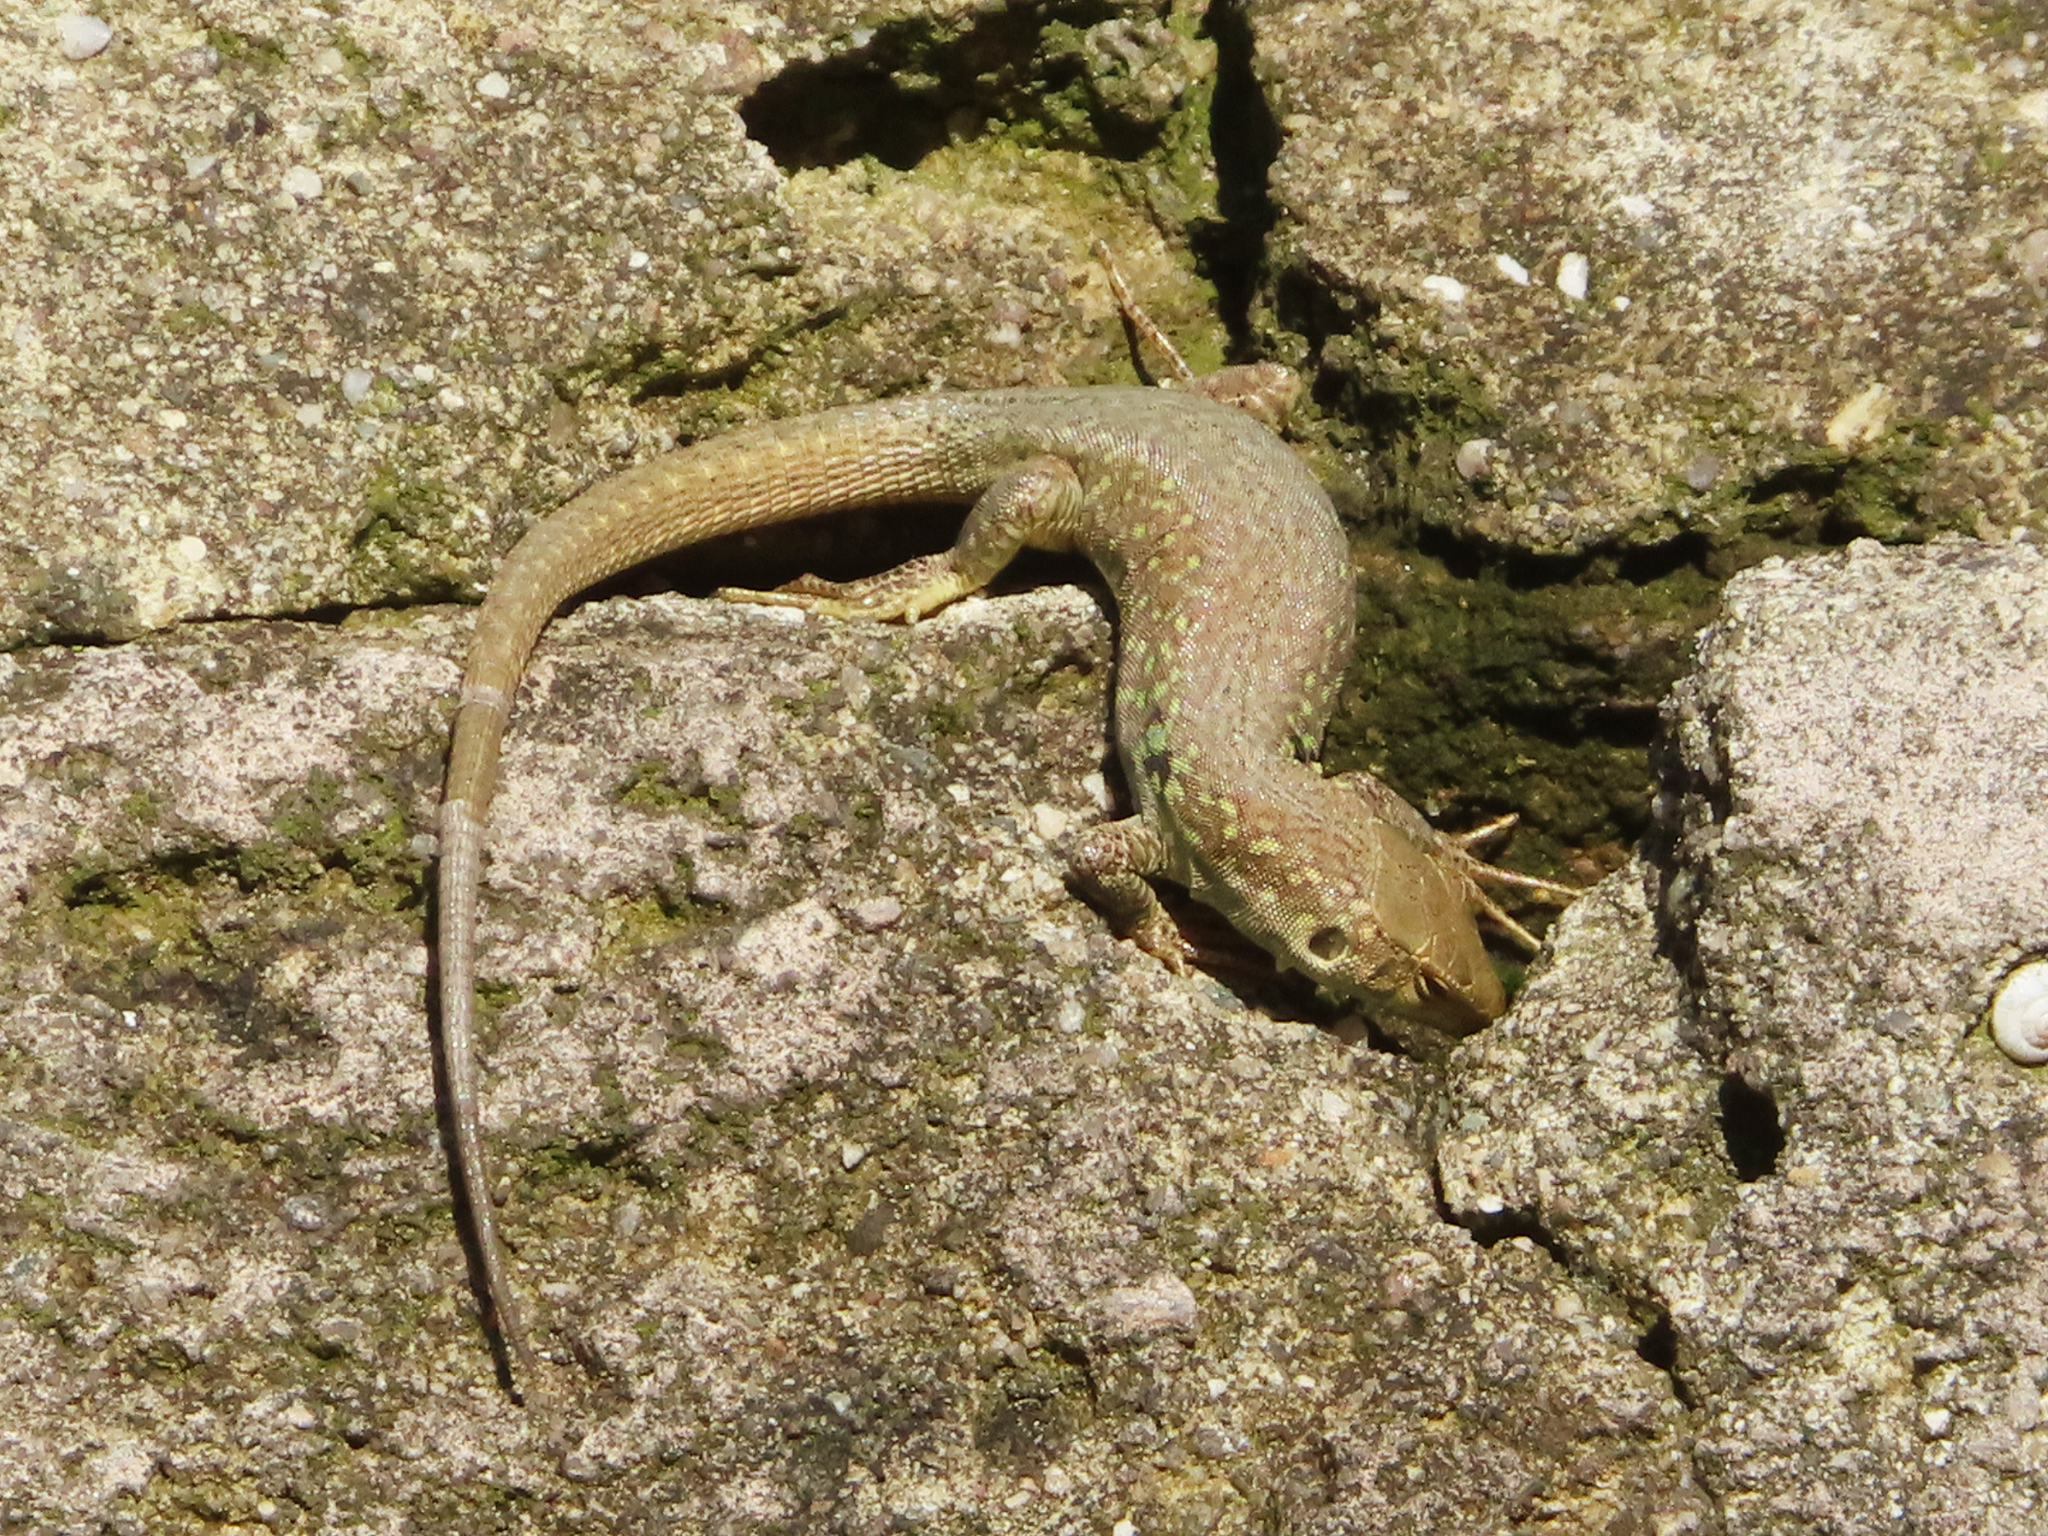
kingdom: Animalia
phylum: Chordata
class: Squamata
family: Lacertidae
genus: Podarcis
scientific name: Podarcis siculus
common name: Italian wall lizard
